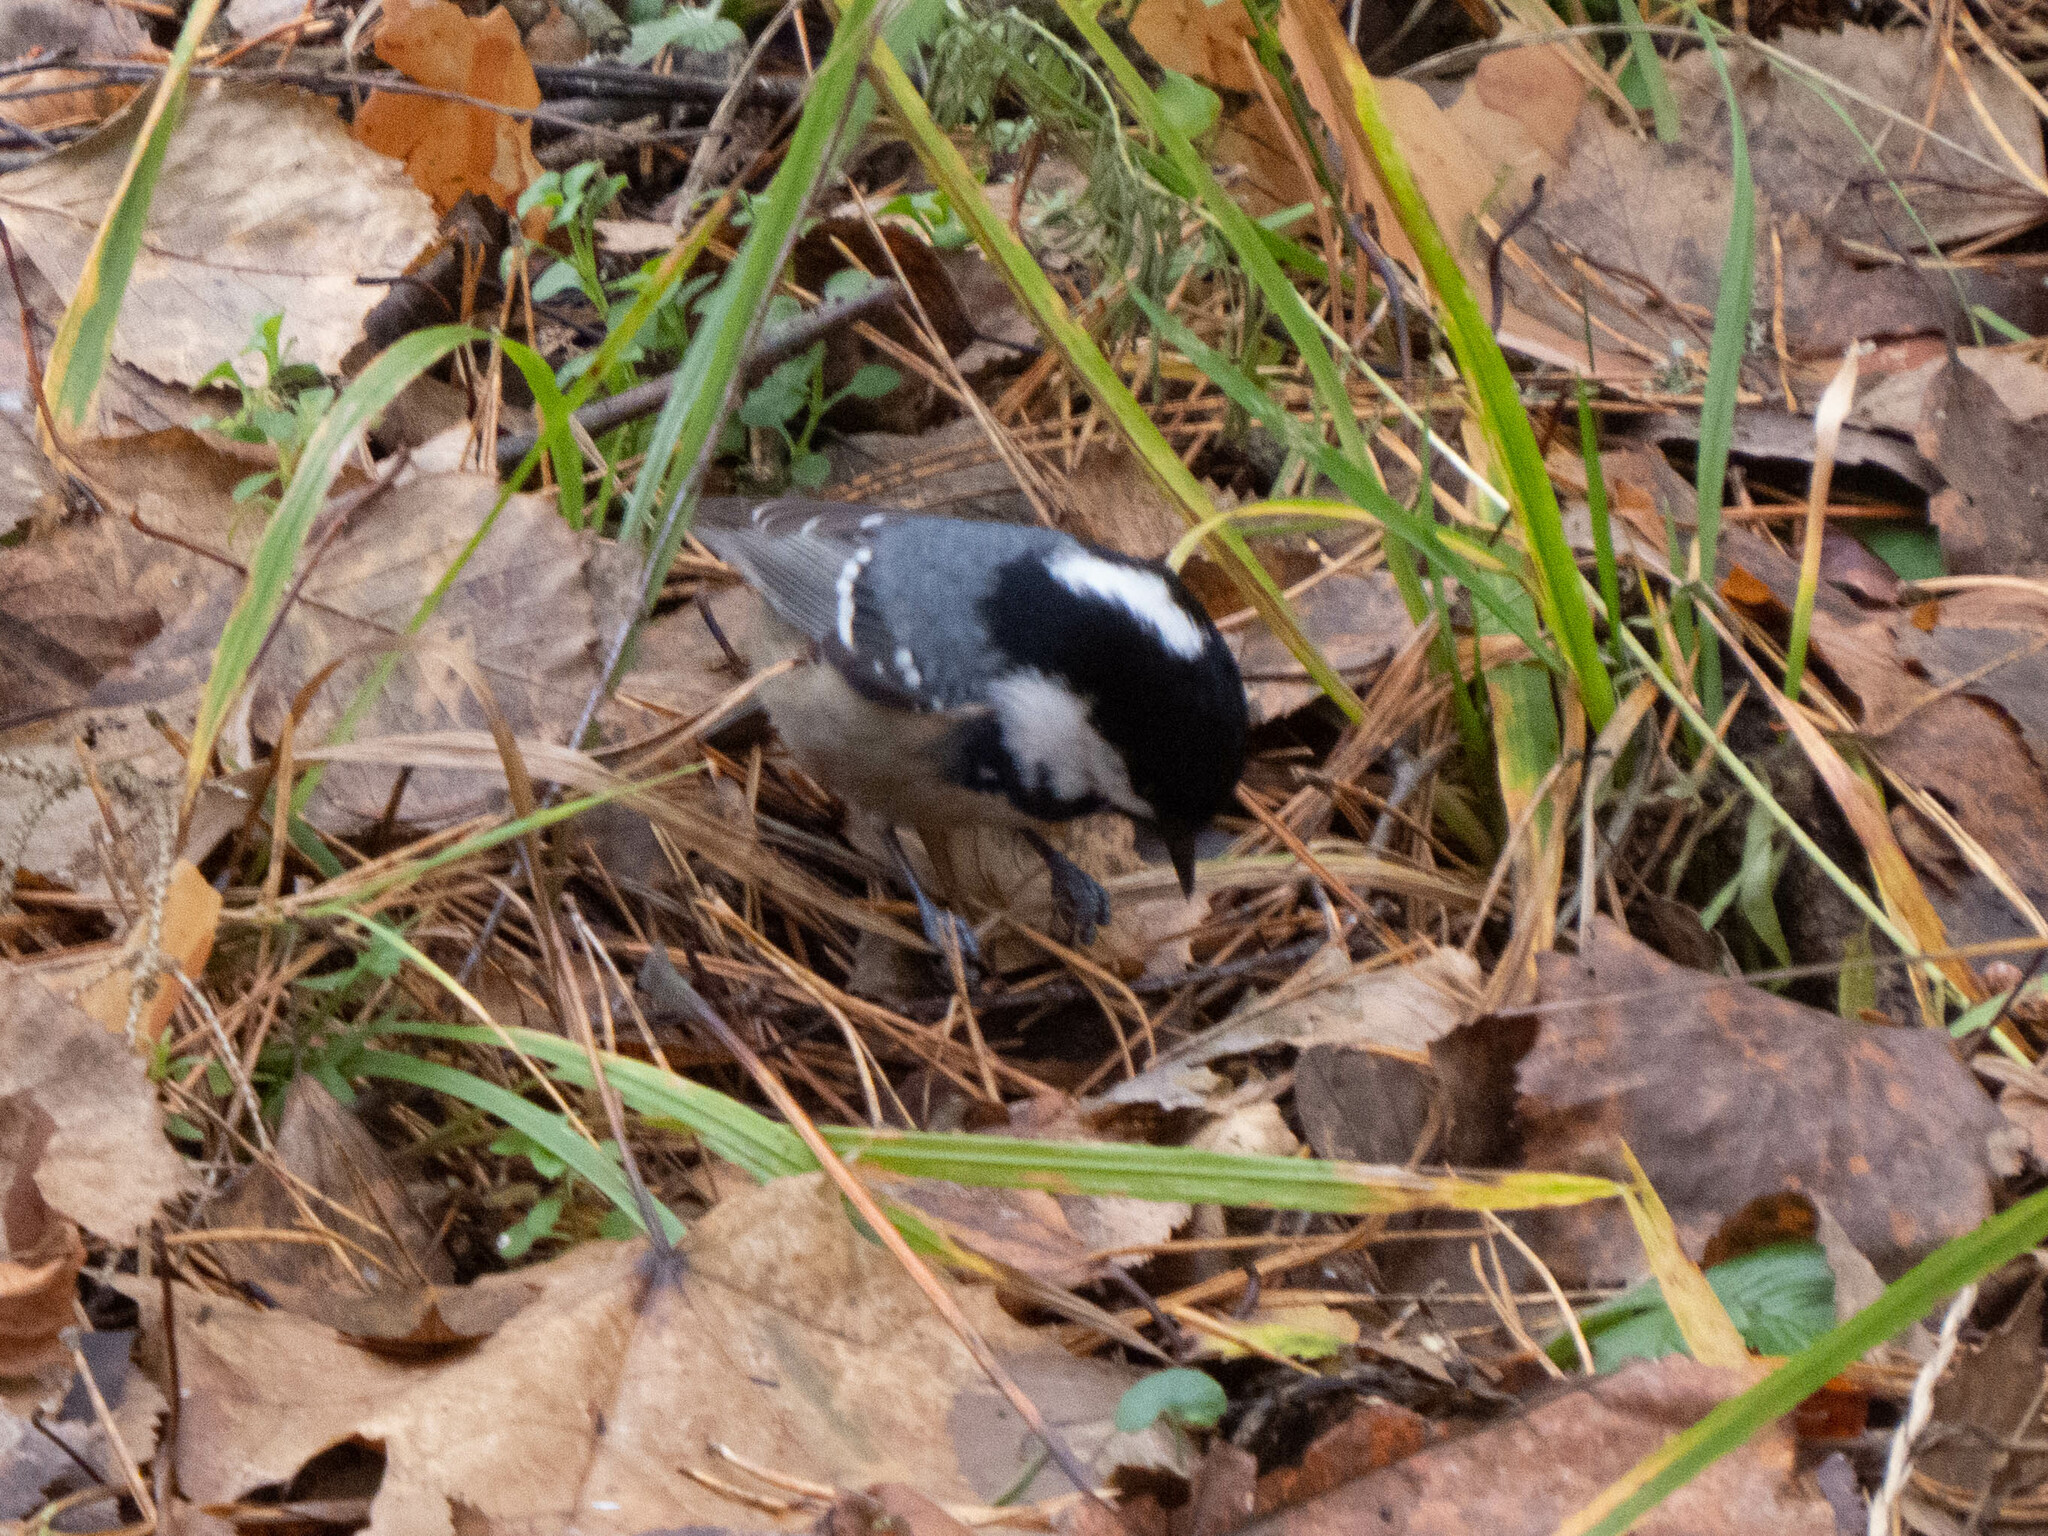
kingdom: Animalia
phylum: Chordata
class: Aves
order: Passeriformes
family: Paridae
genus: Periparus
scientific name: Periparus ater
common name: Coal tit
